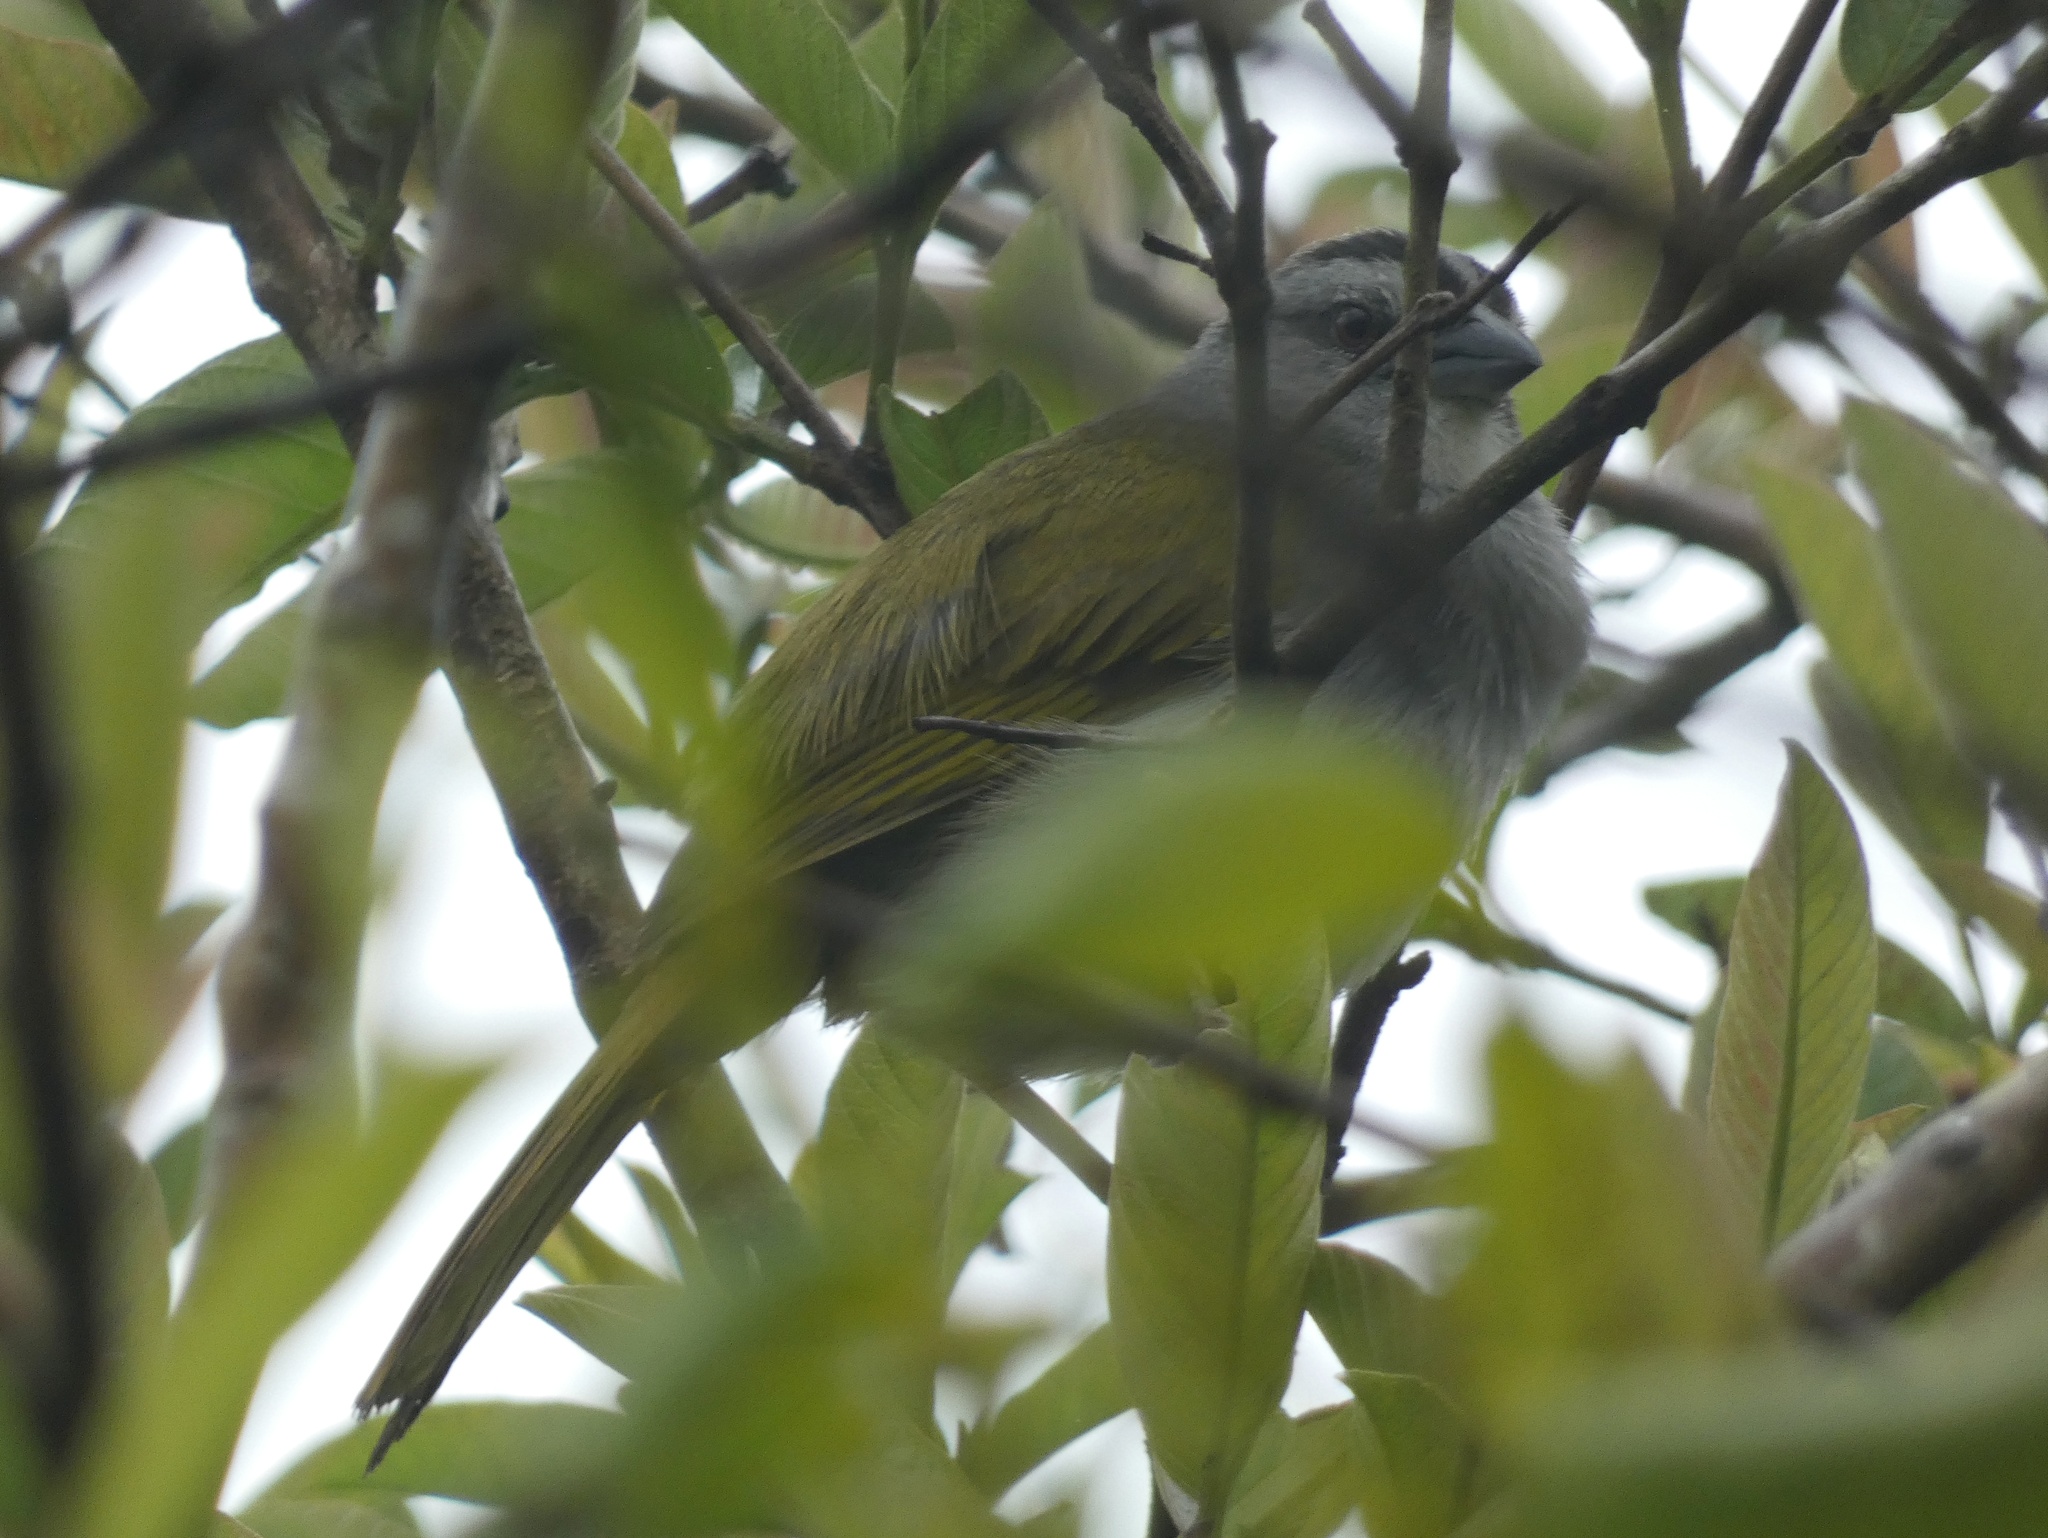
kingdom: Animalia
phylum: Chordata
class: Aves
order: Passeriformes
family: Passerellidae
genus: Arremonops
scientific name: Arremonops conirostris
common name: Black-striped sparrow
